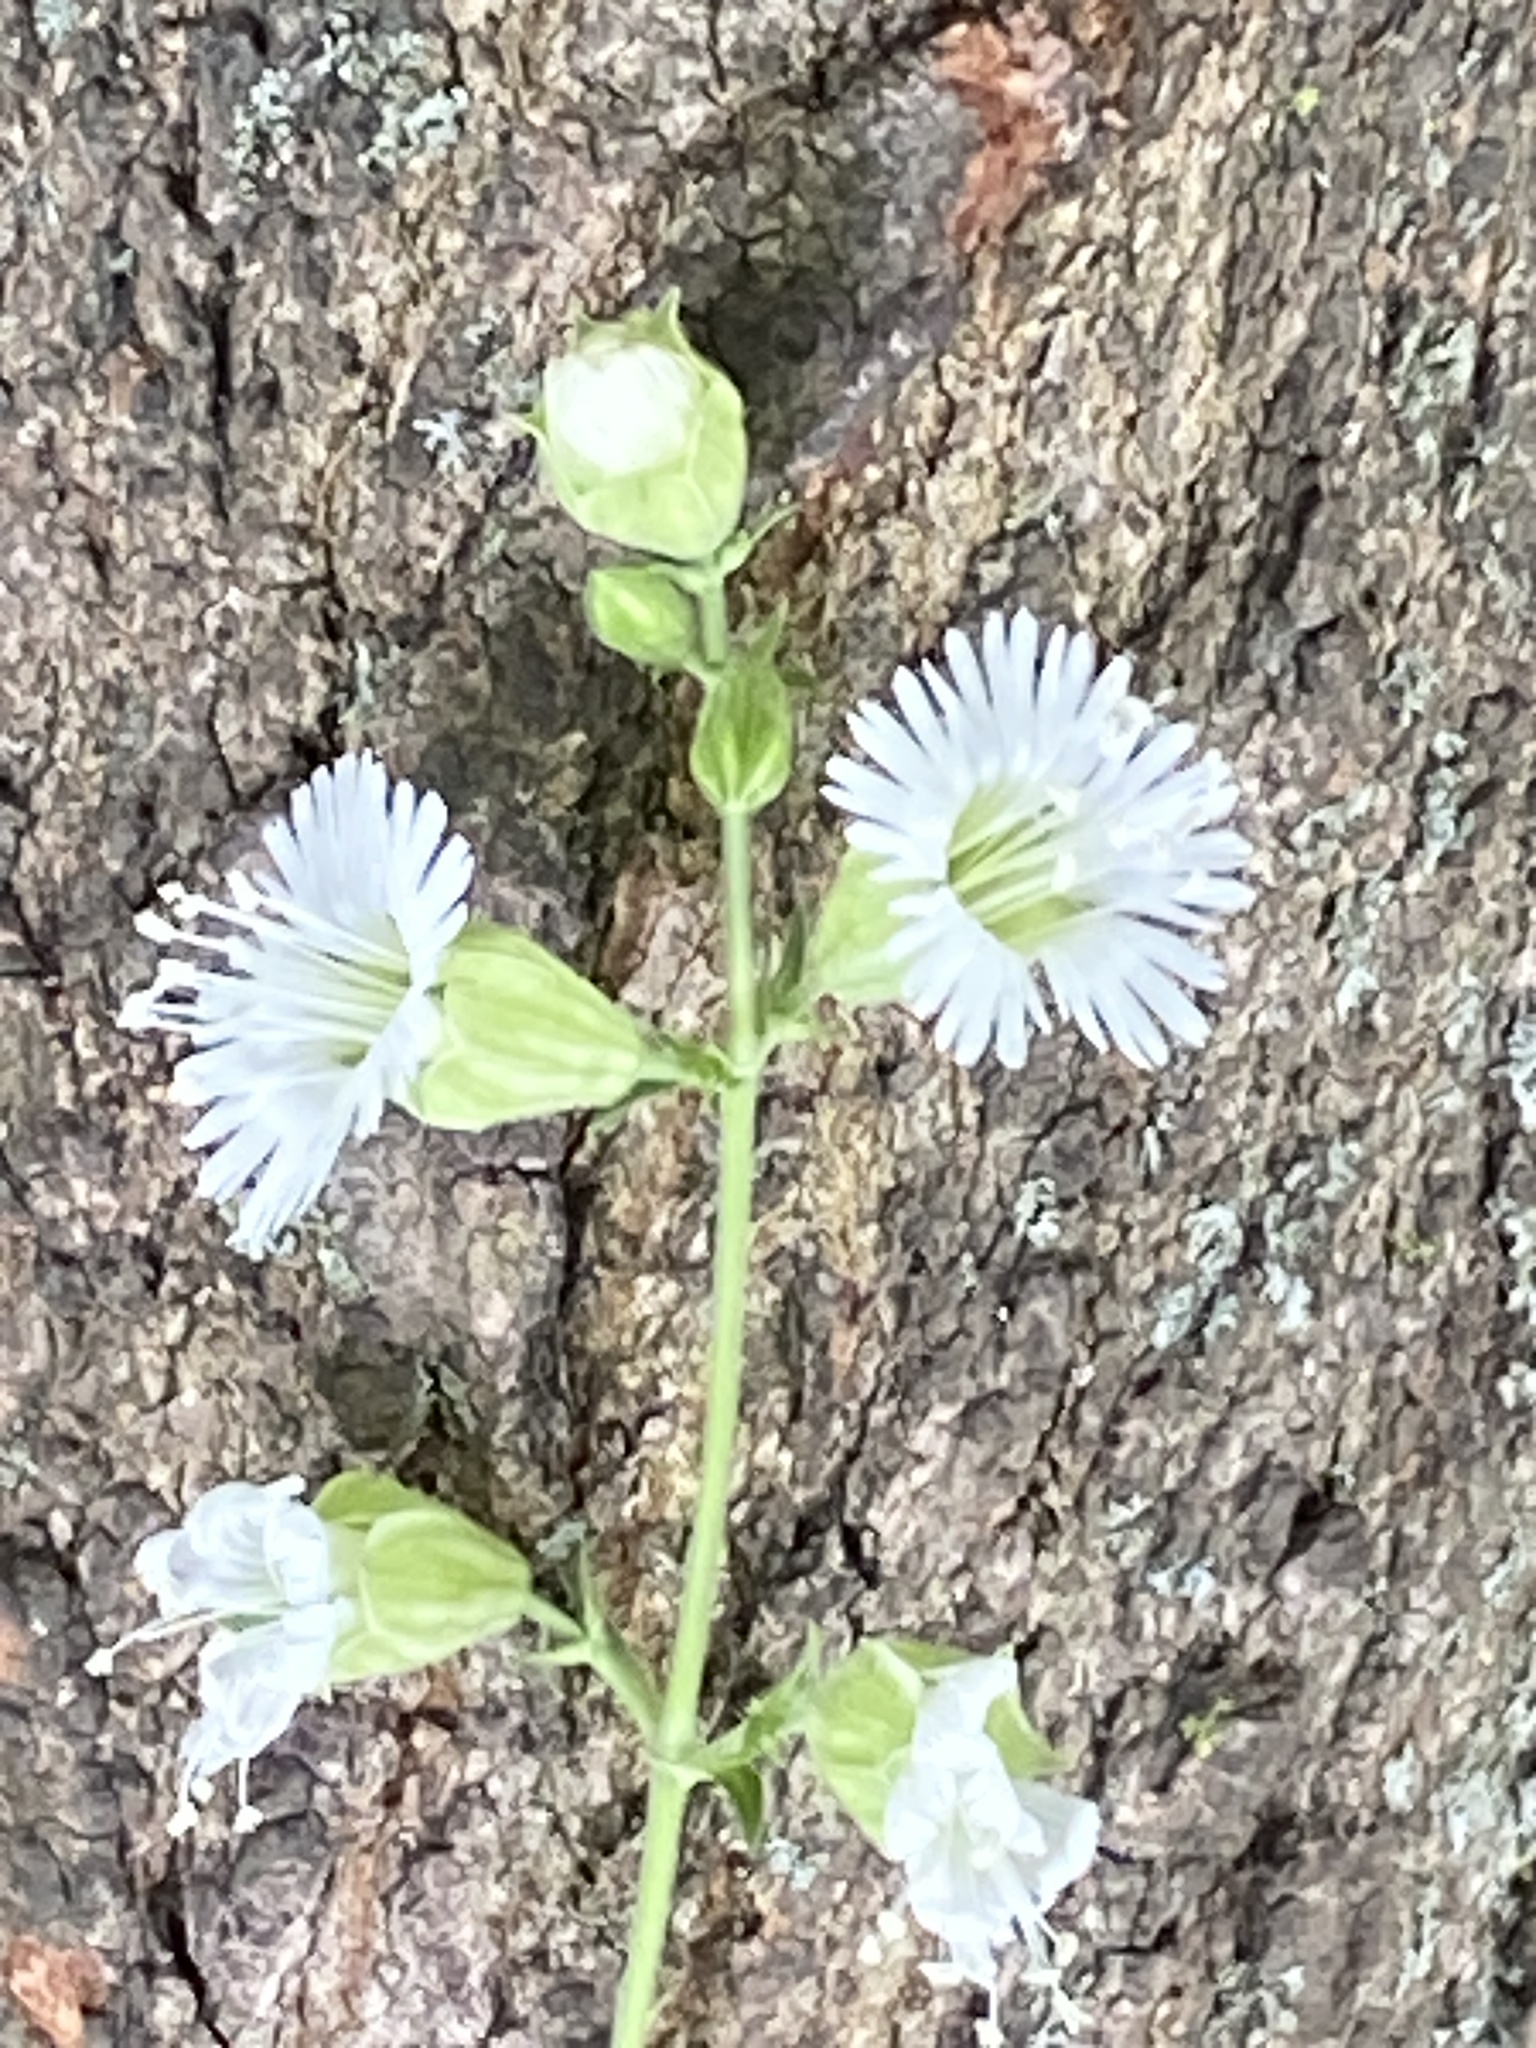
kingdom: Plantae
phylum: Tracheophyta
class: Magnoliopsida
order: Caryophyllales
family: Caryophyllaceae
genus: Silene
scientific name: Silene stellata
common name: Starry campion
